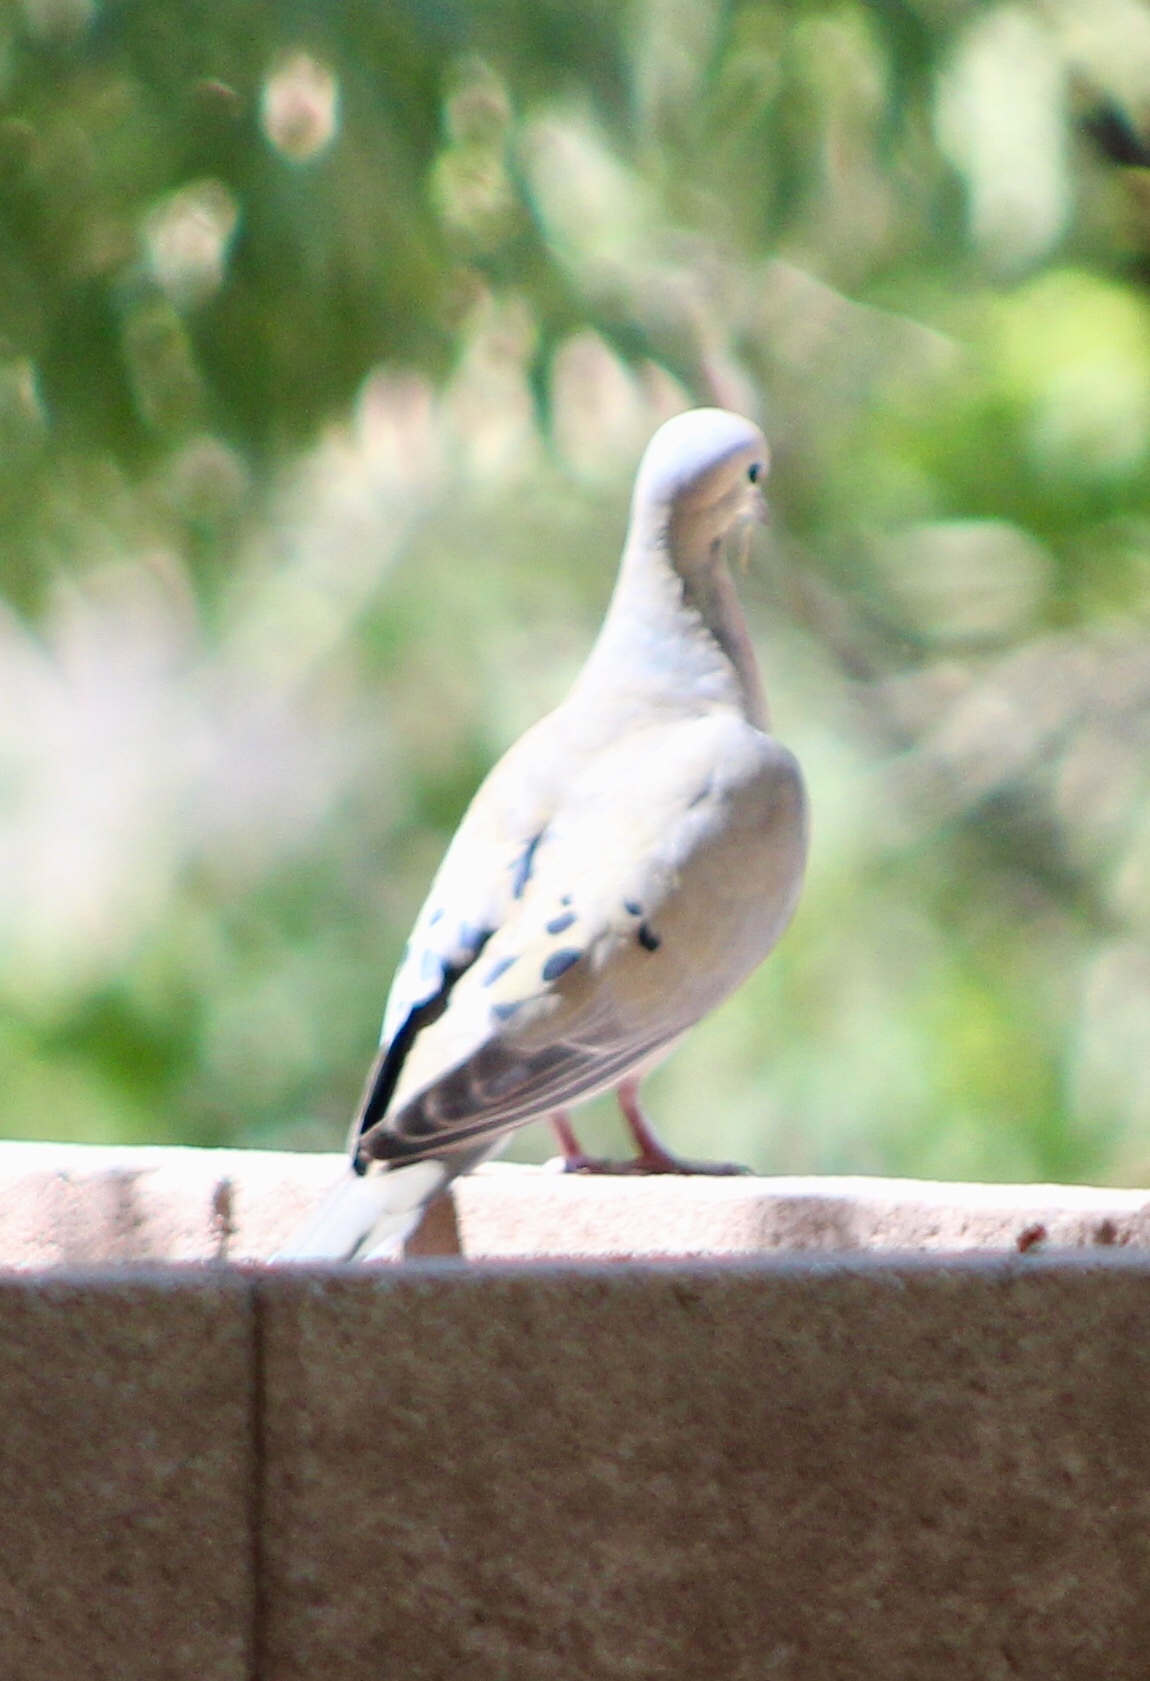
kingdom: Animalia
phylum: Chordata
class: Aves
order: Columbiformes
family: Columbidae
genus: Zenaida
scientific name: Zenaida macroura
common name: Mourning dove
